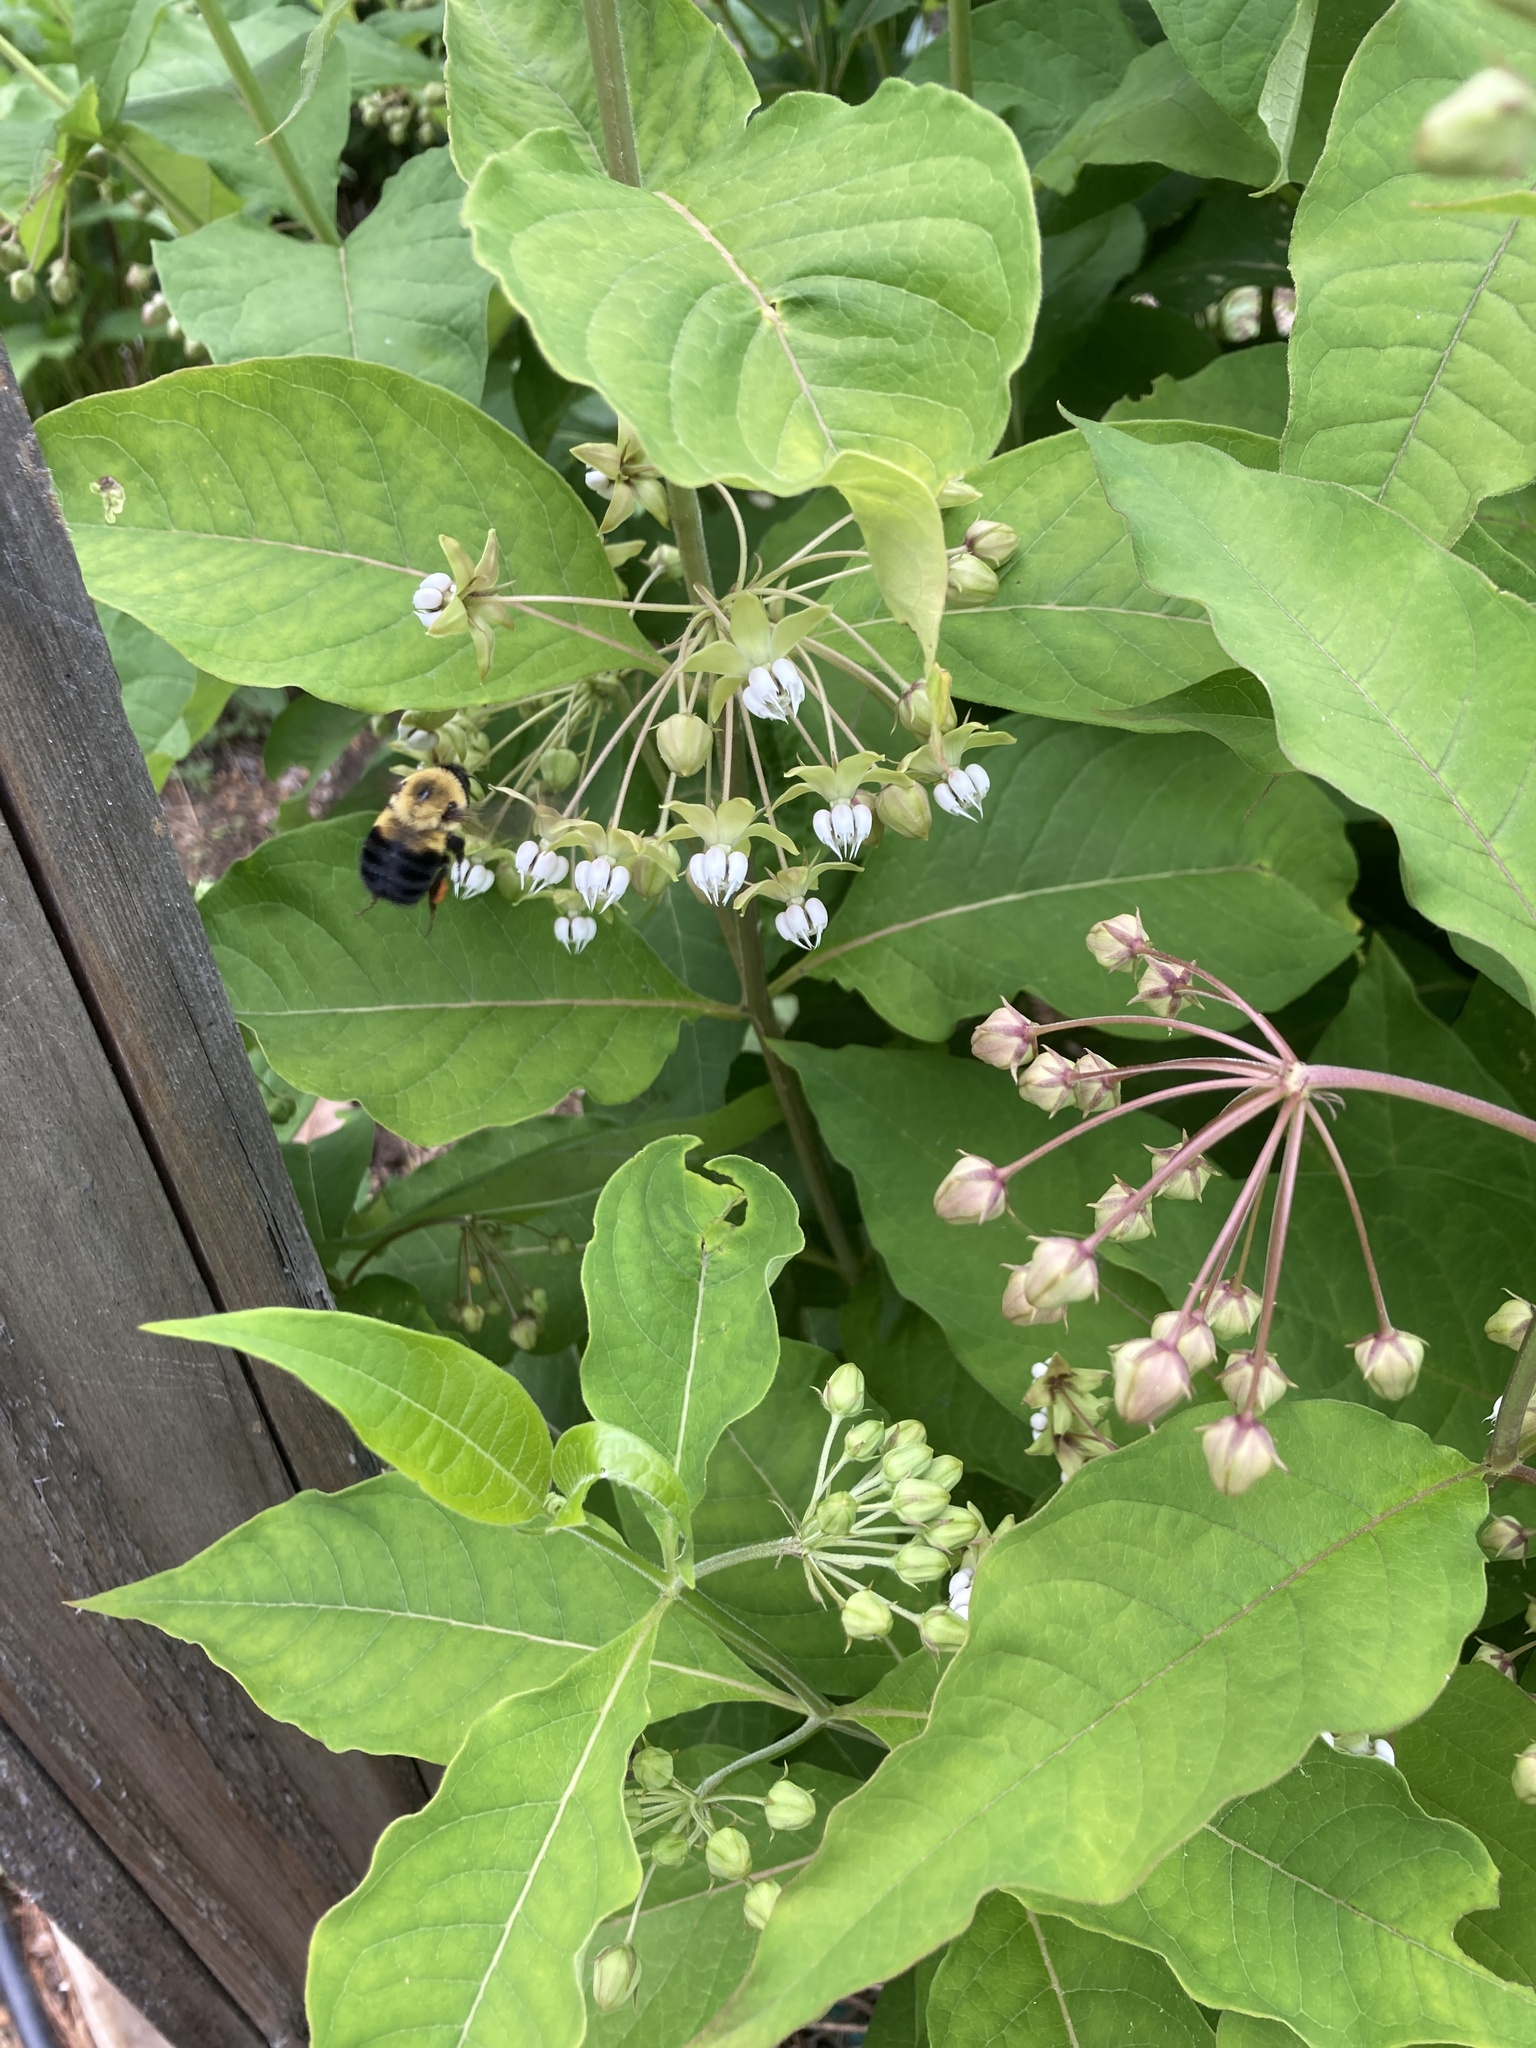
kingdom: Animalia
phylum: Arthropoda
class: Insecta
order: Hymenoptera
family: Apidae
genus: Bombus
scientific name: Bombus griseocollis
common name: Brown-belted bumble bee
